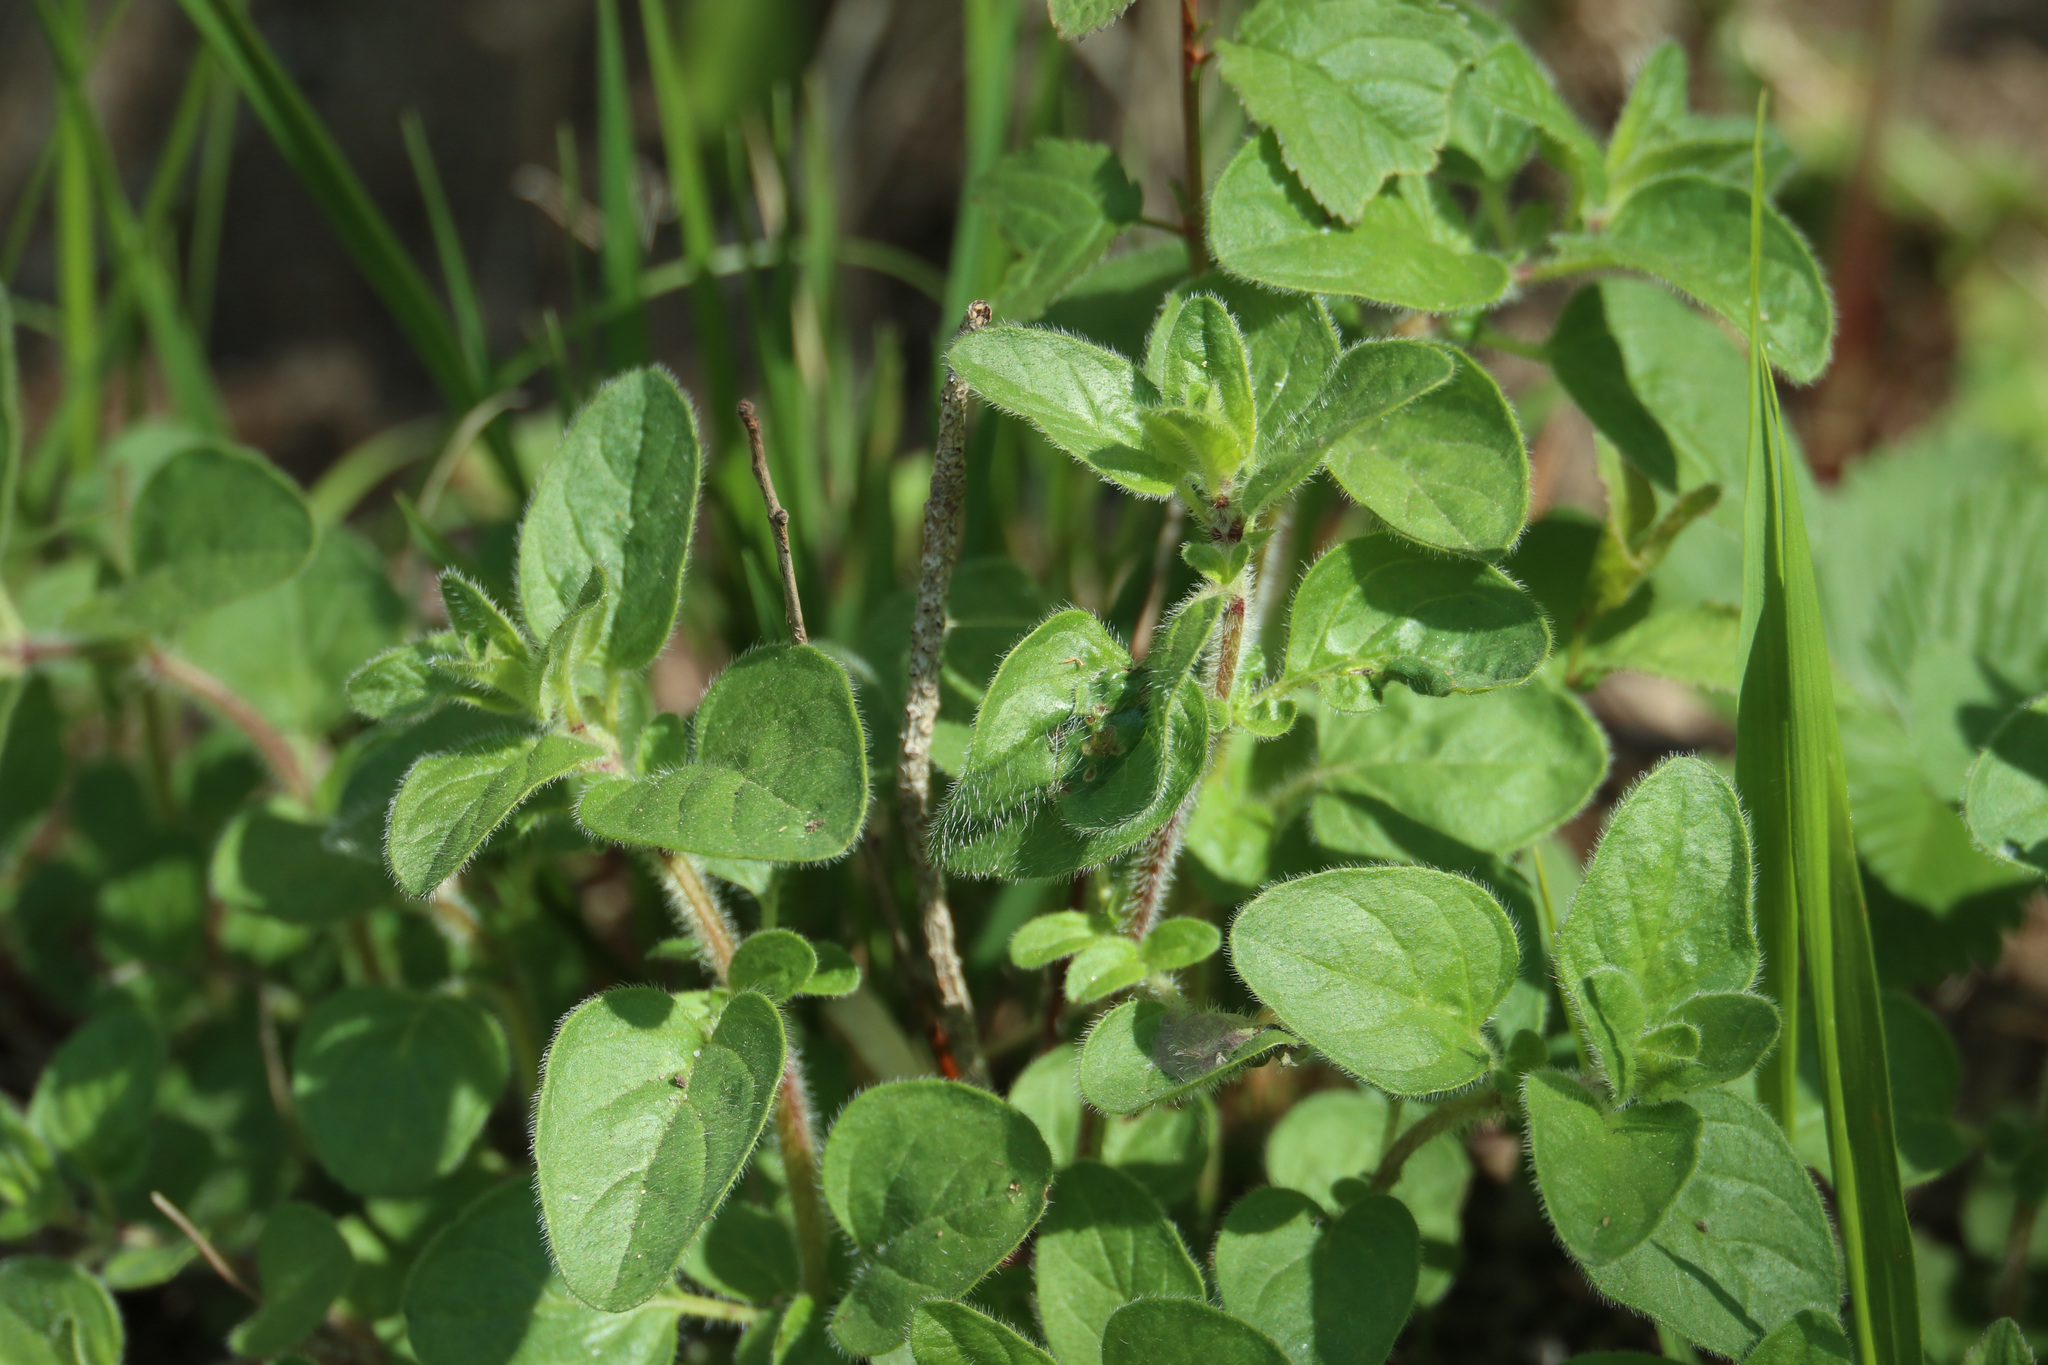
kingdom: Plantae
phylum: Tracheophyta
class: Magnoliopsida
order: Lamiales
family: Lamiaceae
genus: Origanum
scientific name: Origanum vulgare
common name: Wild marjoram
